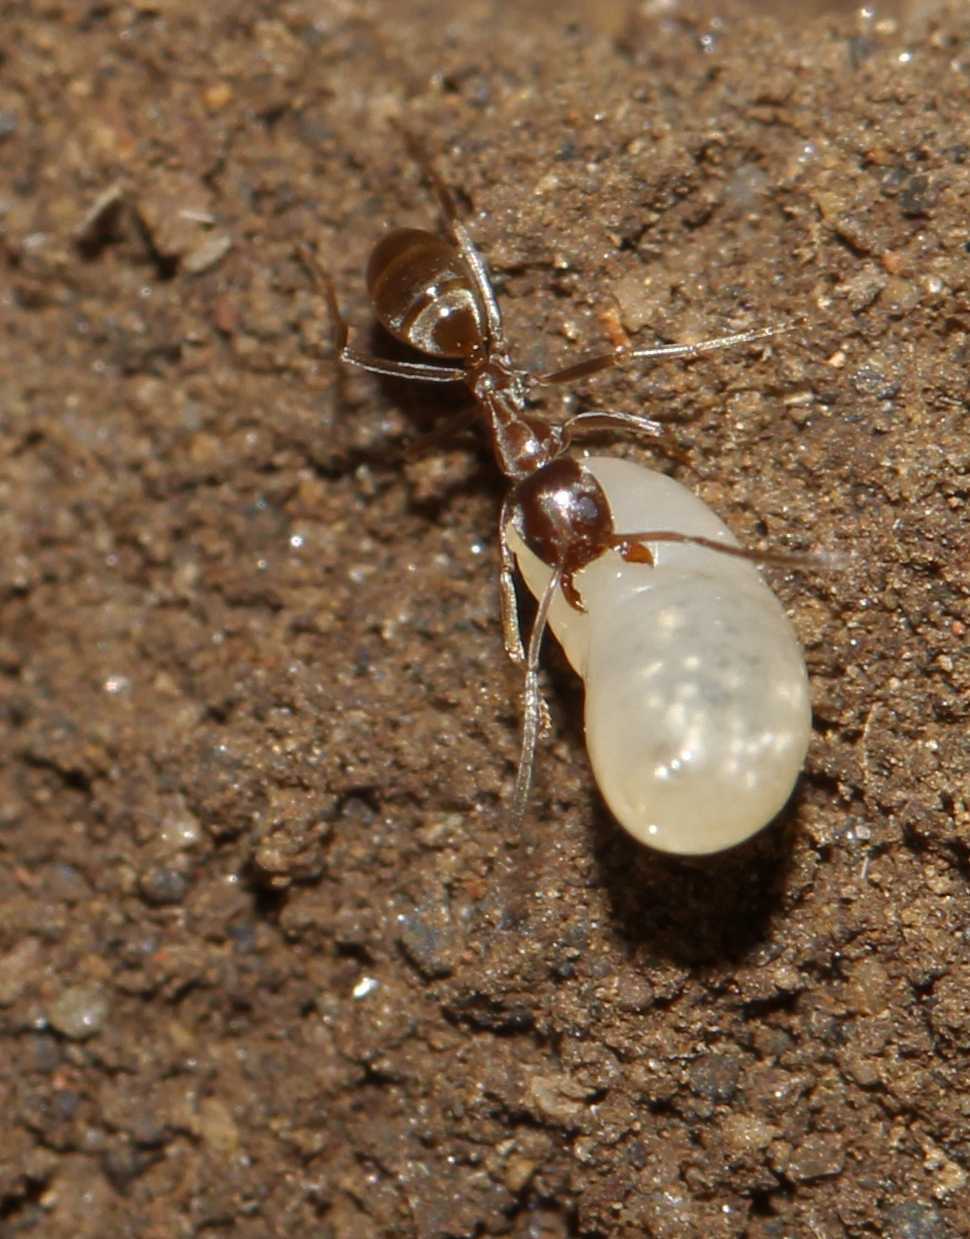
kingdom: Animalia
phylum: Arthropoda
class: Insecta
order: Hymenoptera
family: Formicidae
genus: Linepithema
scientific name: Linepithema humile
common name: Argentine ant
